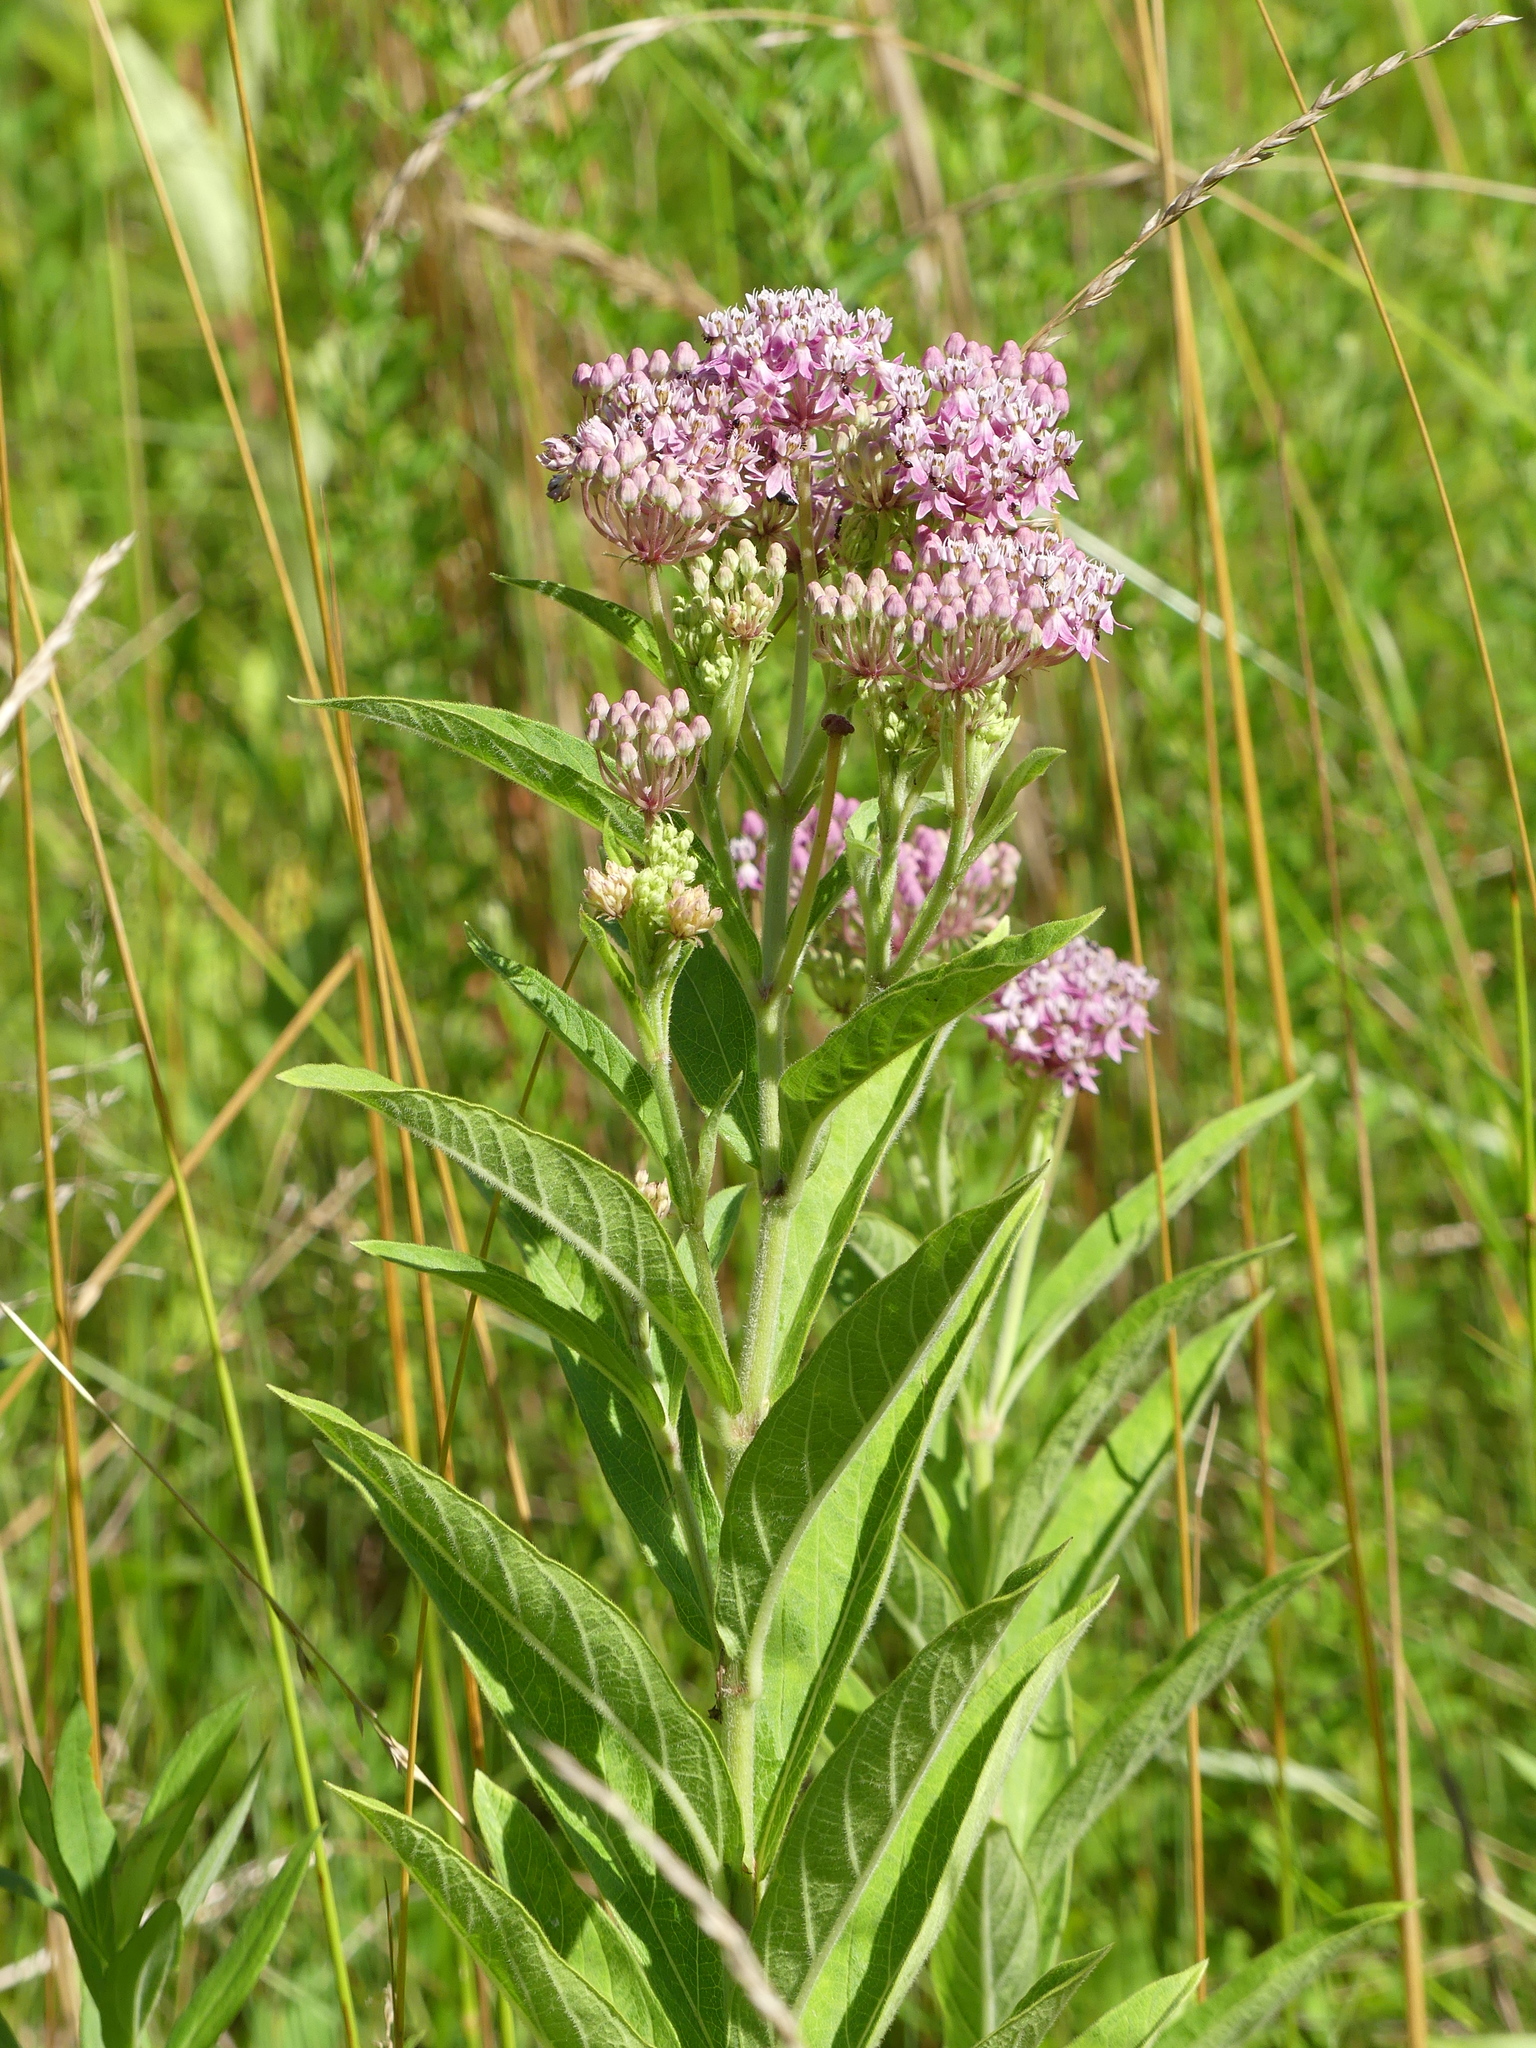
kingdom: Plantae
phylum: Tracheophyta
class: Magnoliopsida
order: Gentianales
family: Apocynaceae
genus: Asclepias
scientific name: Asclepias incarnata
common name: Swamp milkweed
